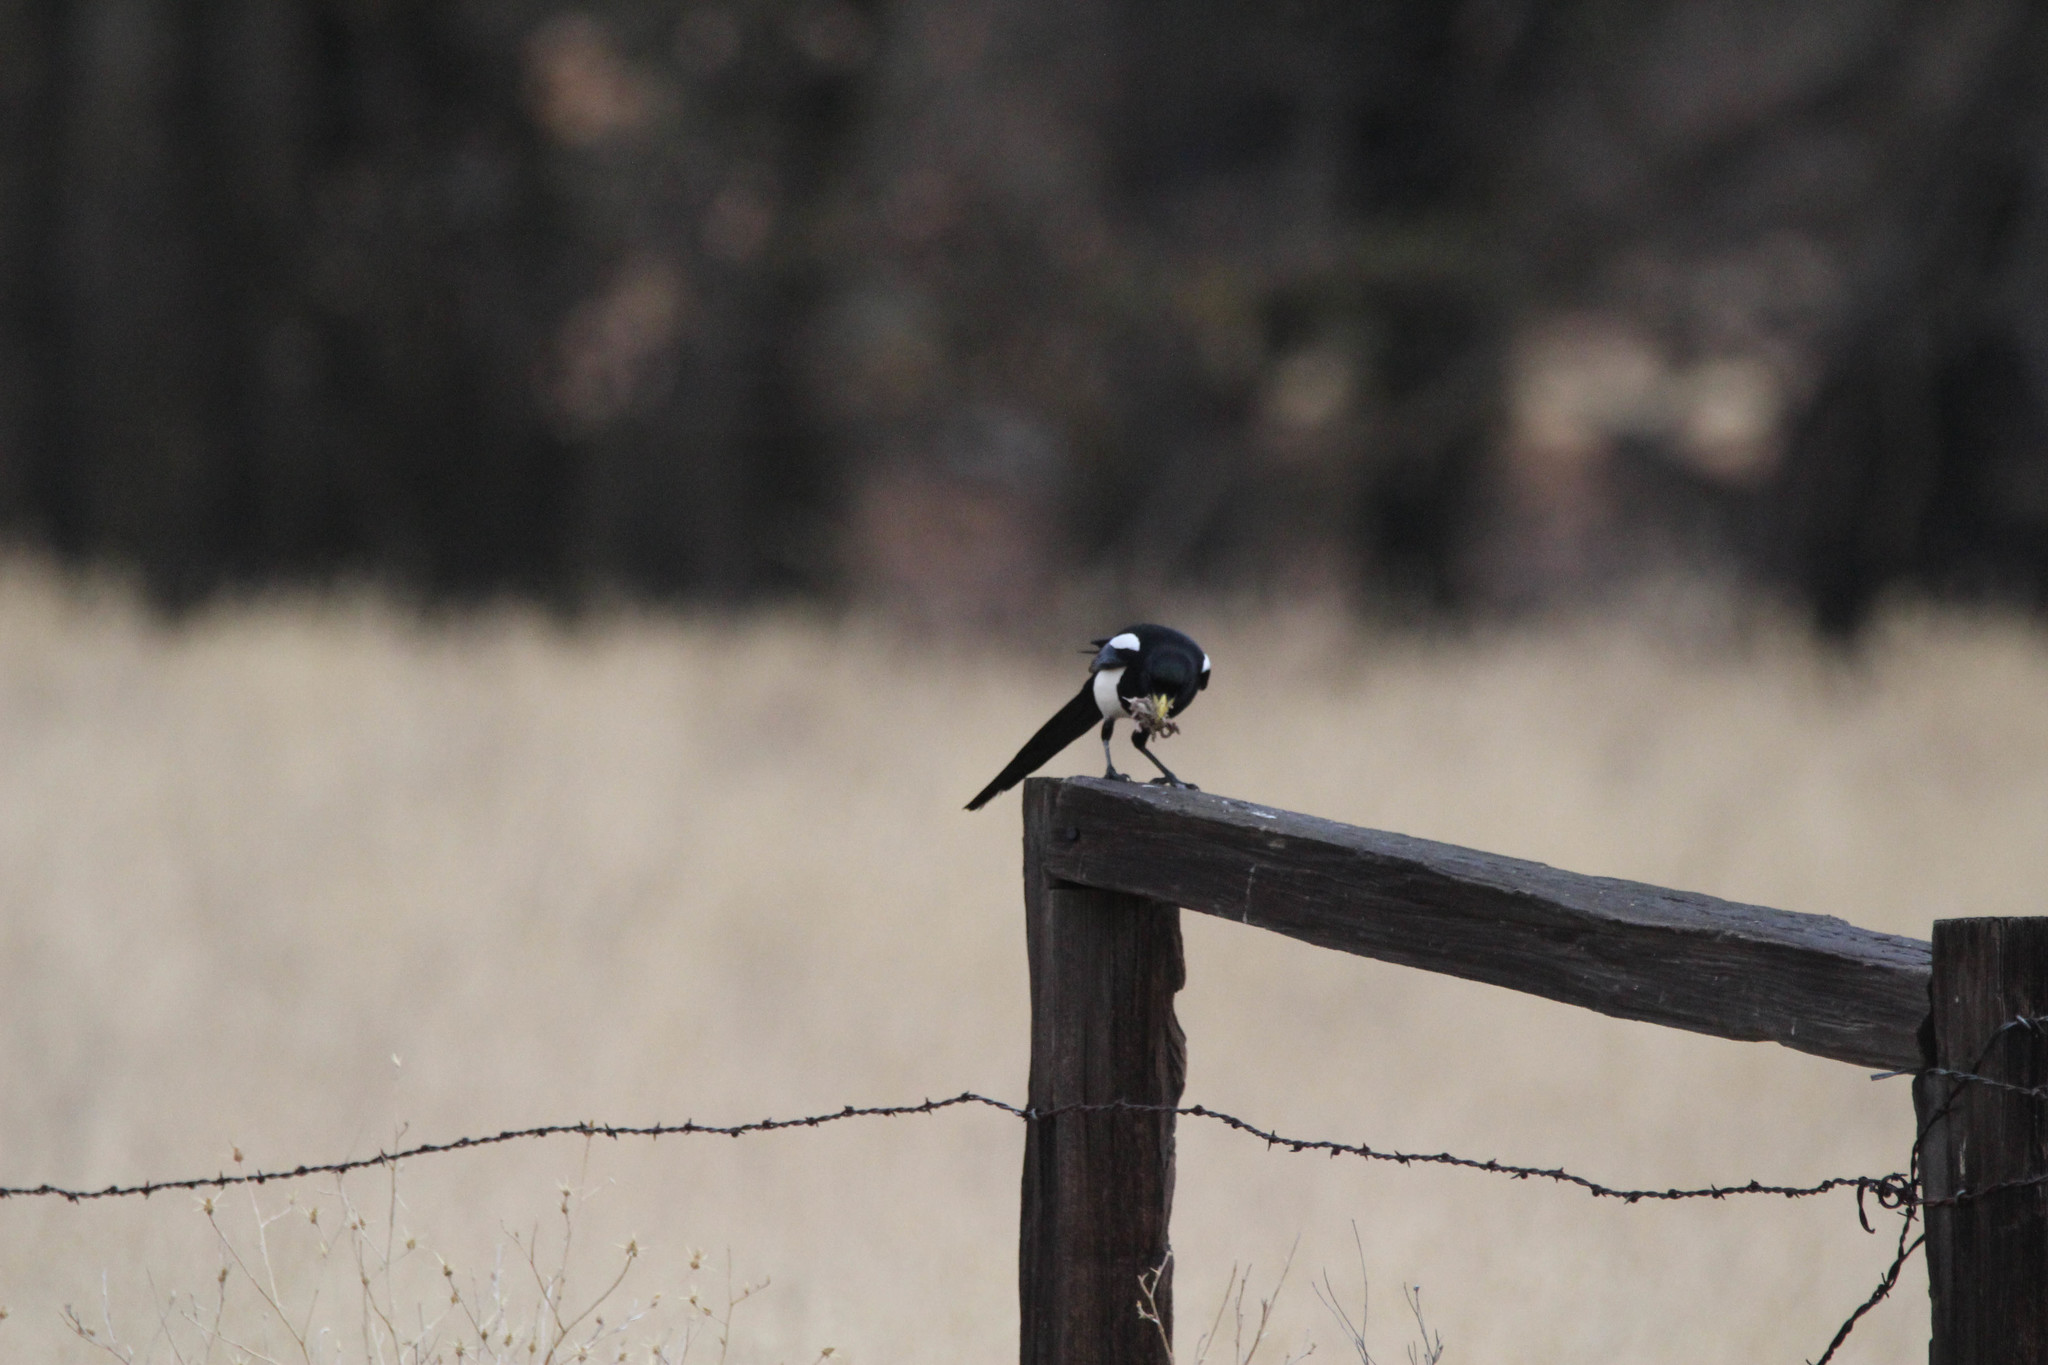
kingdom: Animalia
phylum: Chordata
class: Aves
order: Passeriformes
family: Corvidae
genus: Pica
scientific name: Pica nuttalli
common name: Yellow-billed magpie
